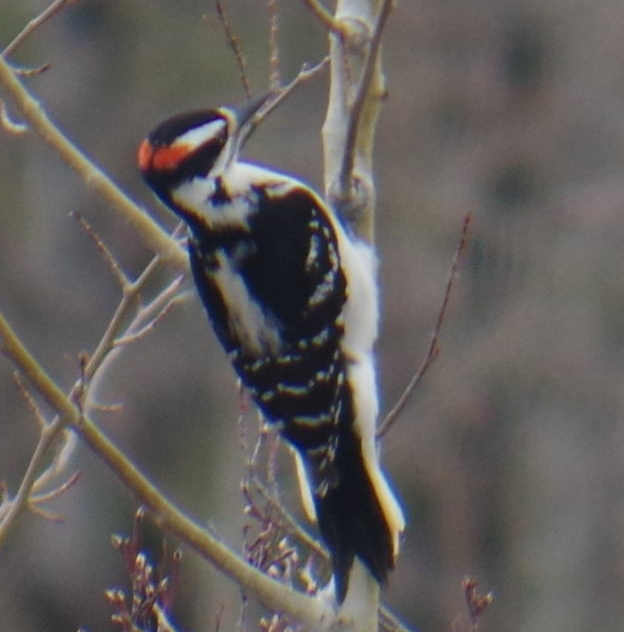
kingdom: Animalia
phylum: Chordata
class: Aves
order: Piciformes
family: Picidae
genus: Leuconotopicus
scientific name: Leuconotopicus villosus
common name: Hairy woodpecker
